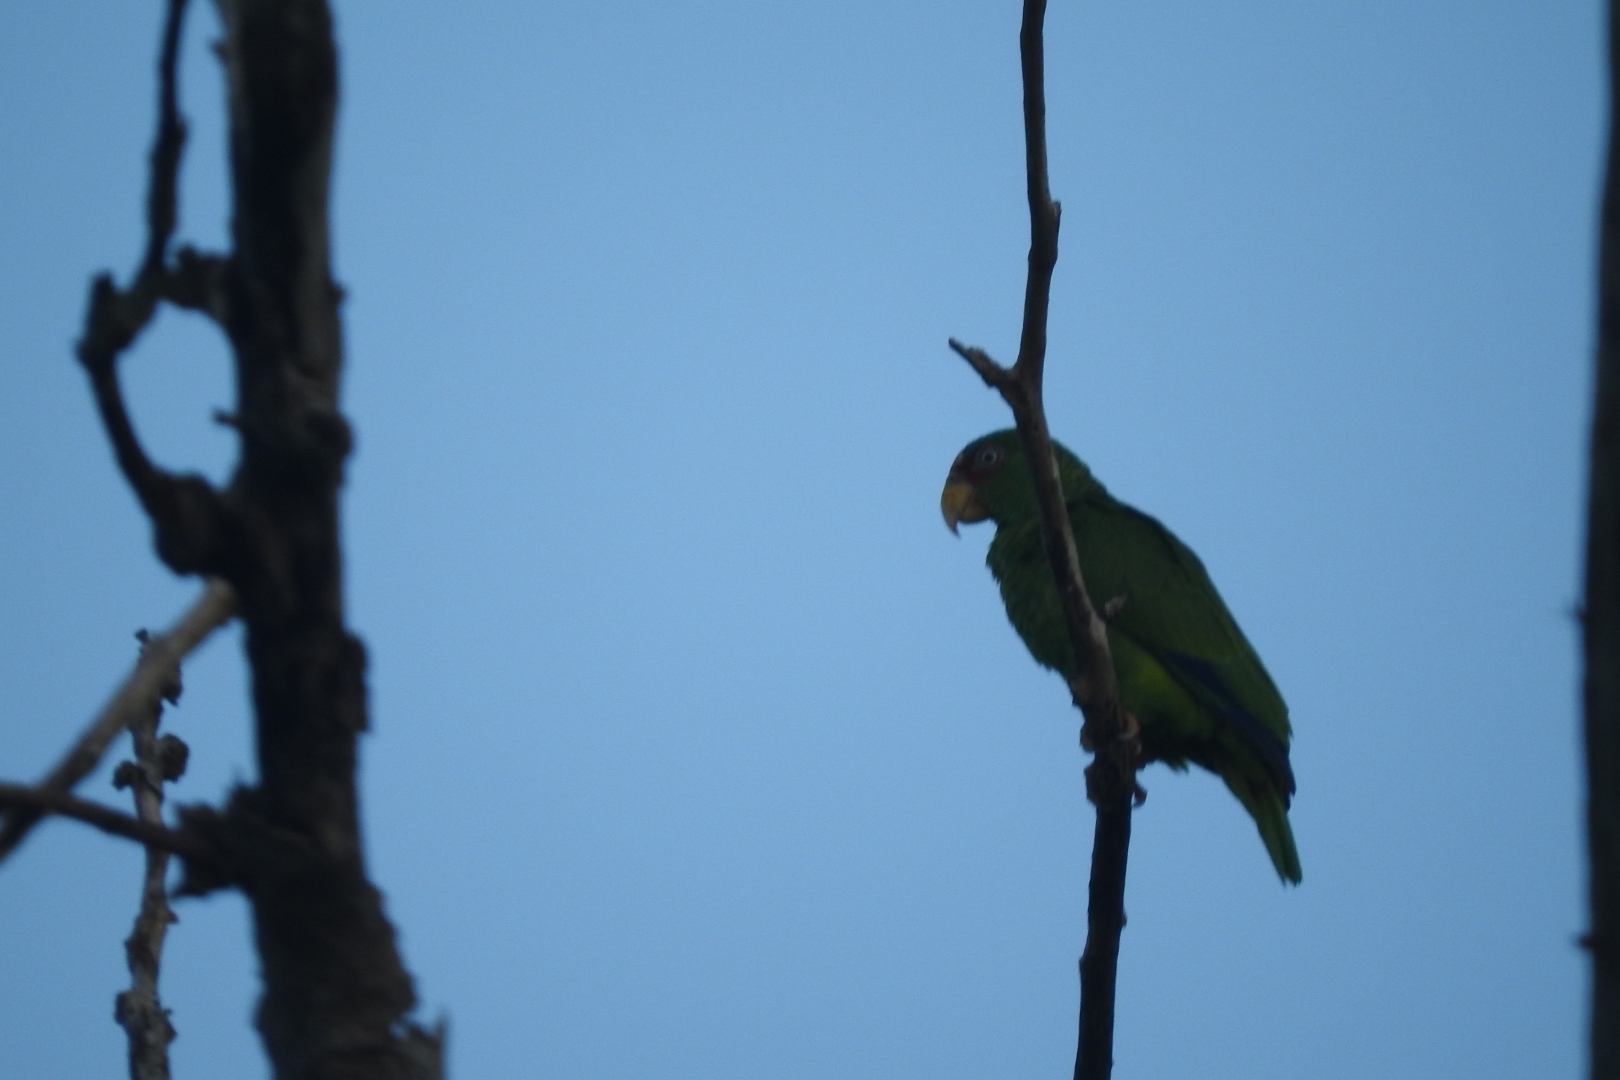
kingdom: Animalia
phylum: Chordata
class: Aves
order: Psittaciformes
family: Psittacidae
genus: Amazona
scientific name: Amazona albifrons
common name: White-fronted amazon
